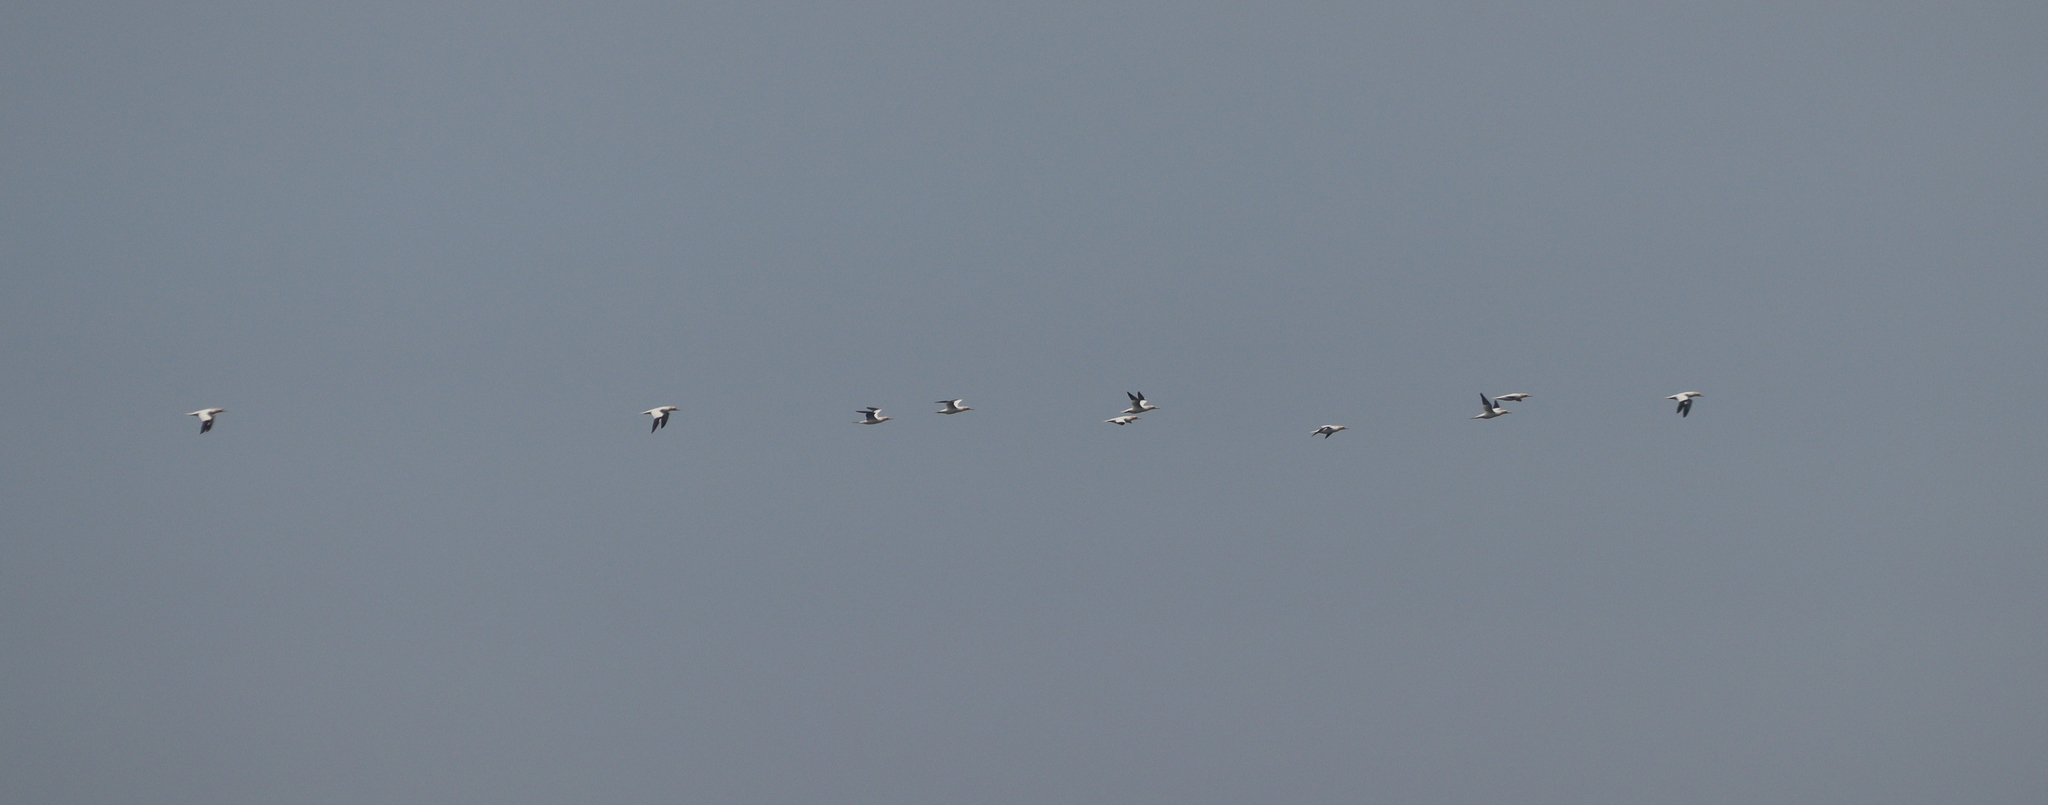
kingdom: Animalia
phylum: Chordata
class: Aves
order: Suliformes
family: Sulidae
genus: Morus
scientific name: Morus bassanus
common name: Northern gannet
